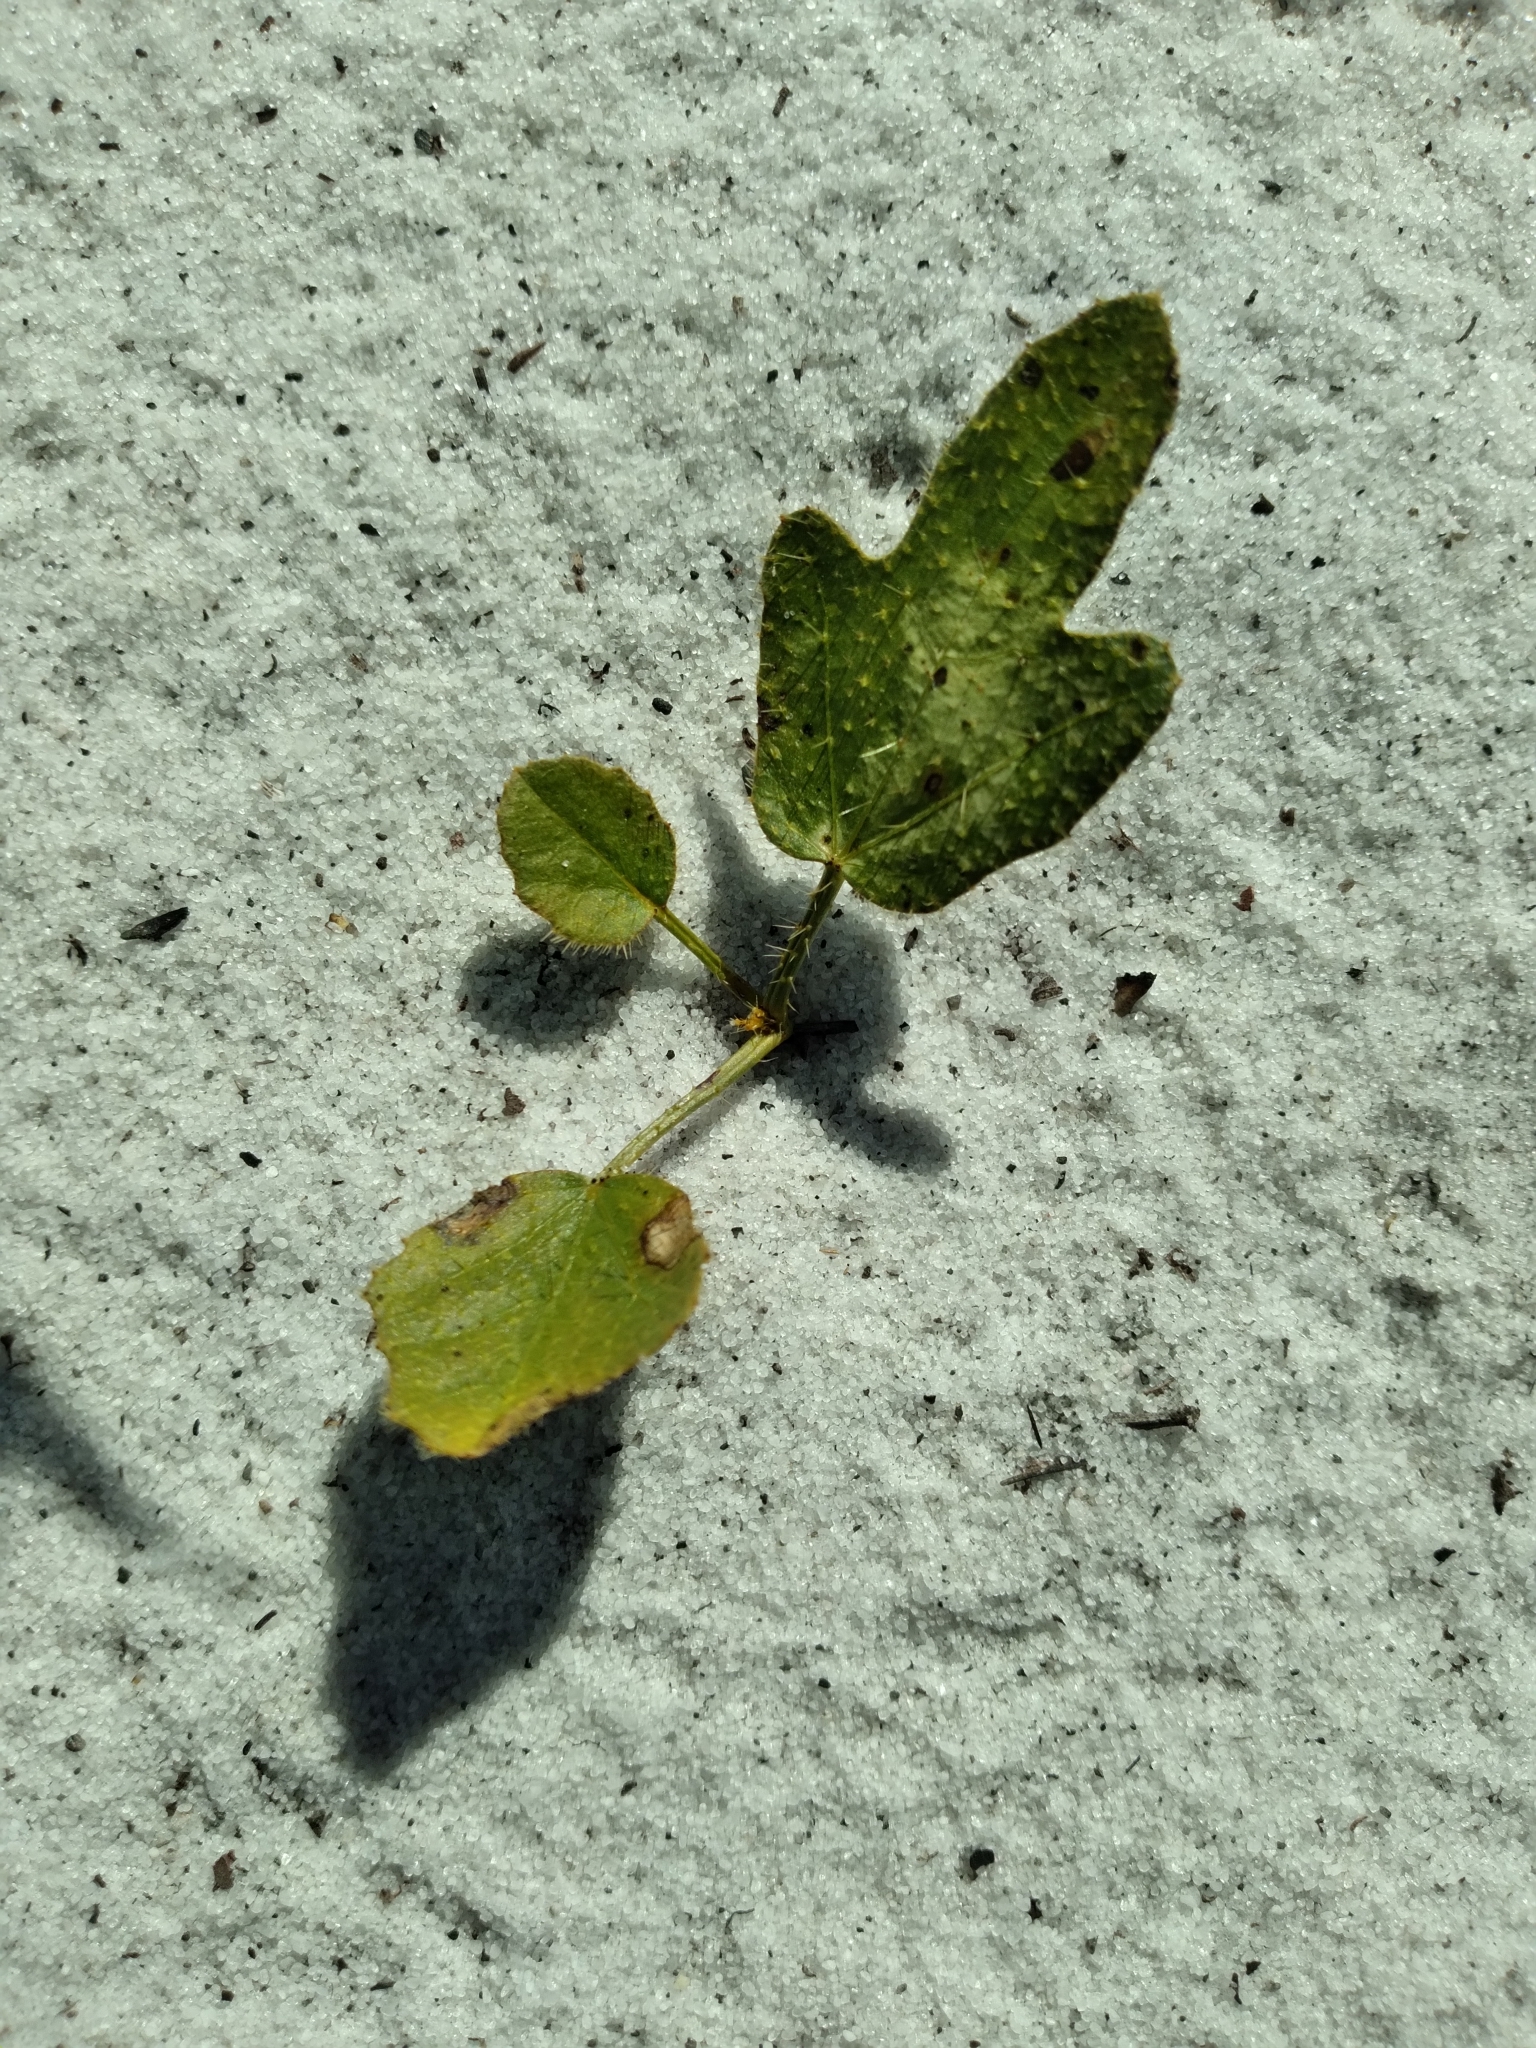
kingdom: Plantae
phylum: Tracheophyta
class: Magnoliopsida
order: Malpighiales
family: Euphorbiaceae
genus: Cnidoscolus
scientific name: Cnidoscolus stimulosus
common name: Bull-nettle
